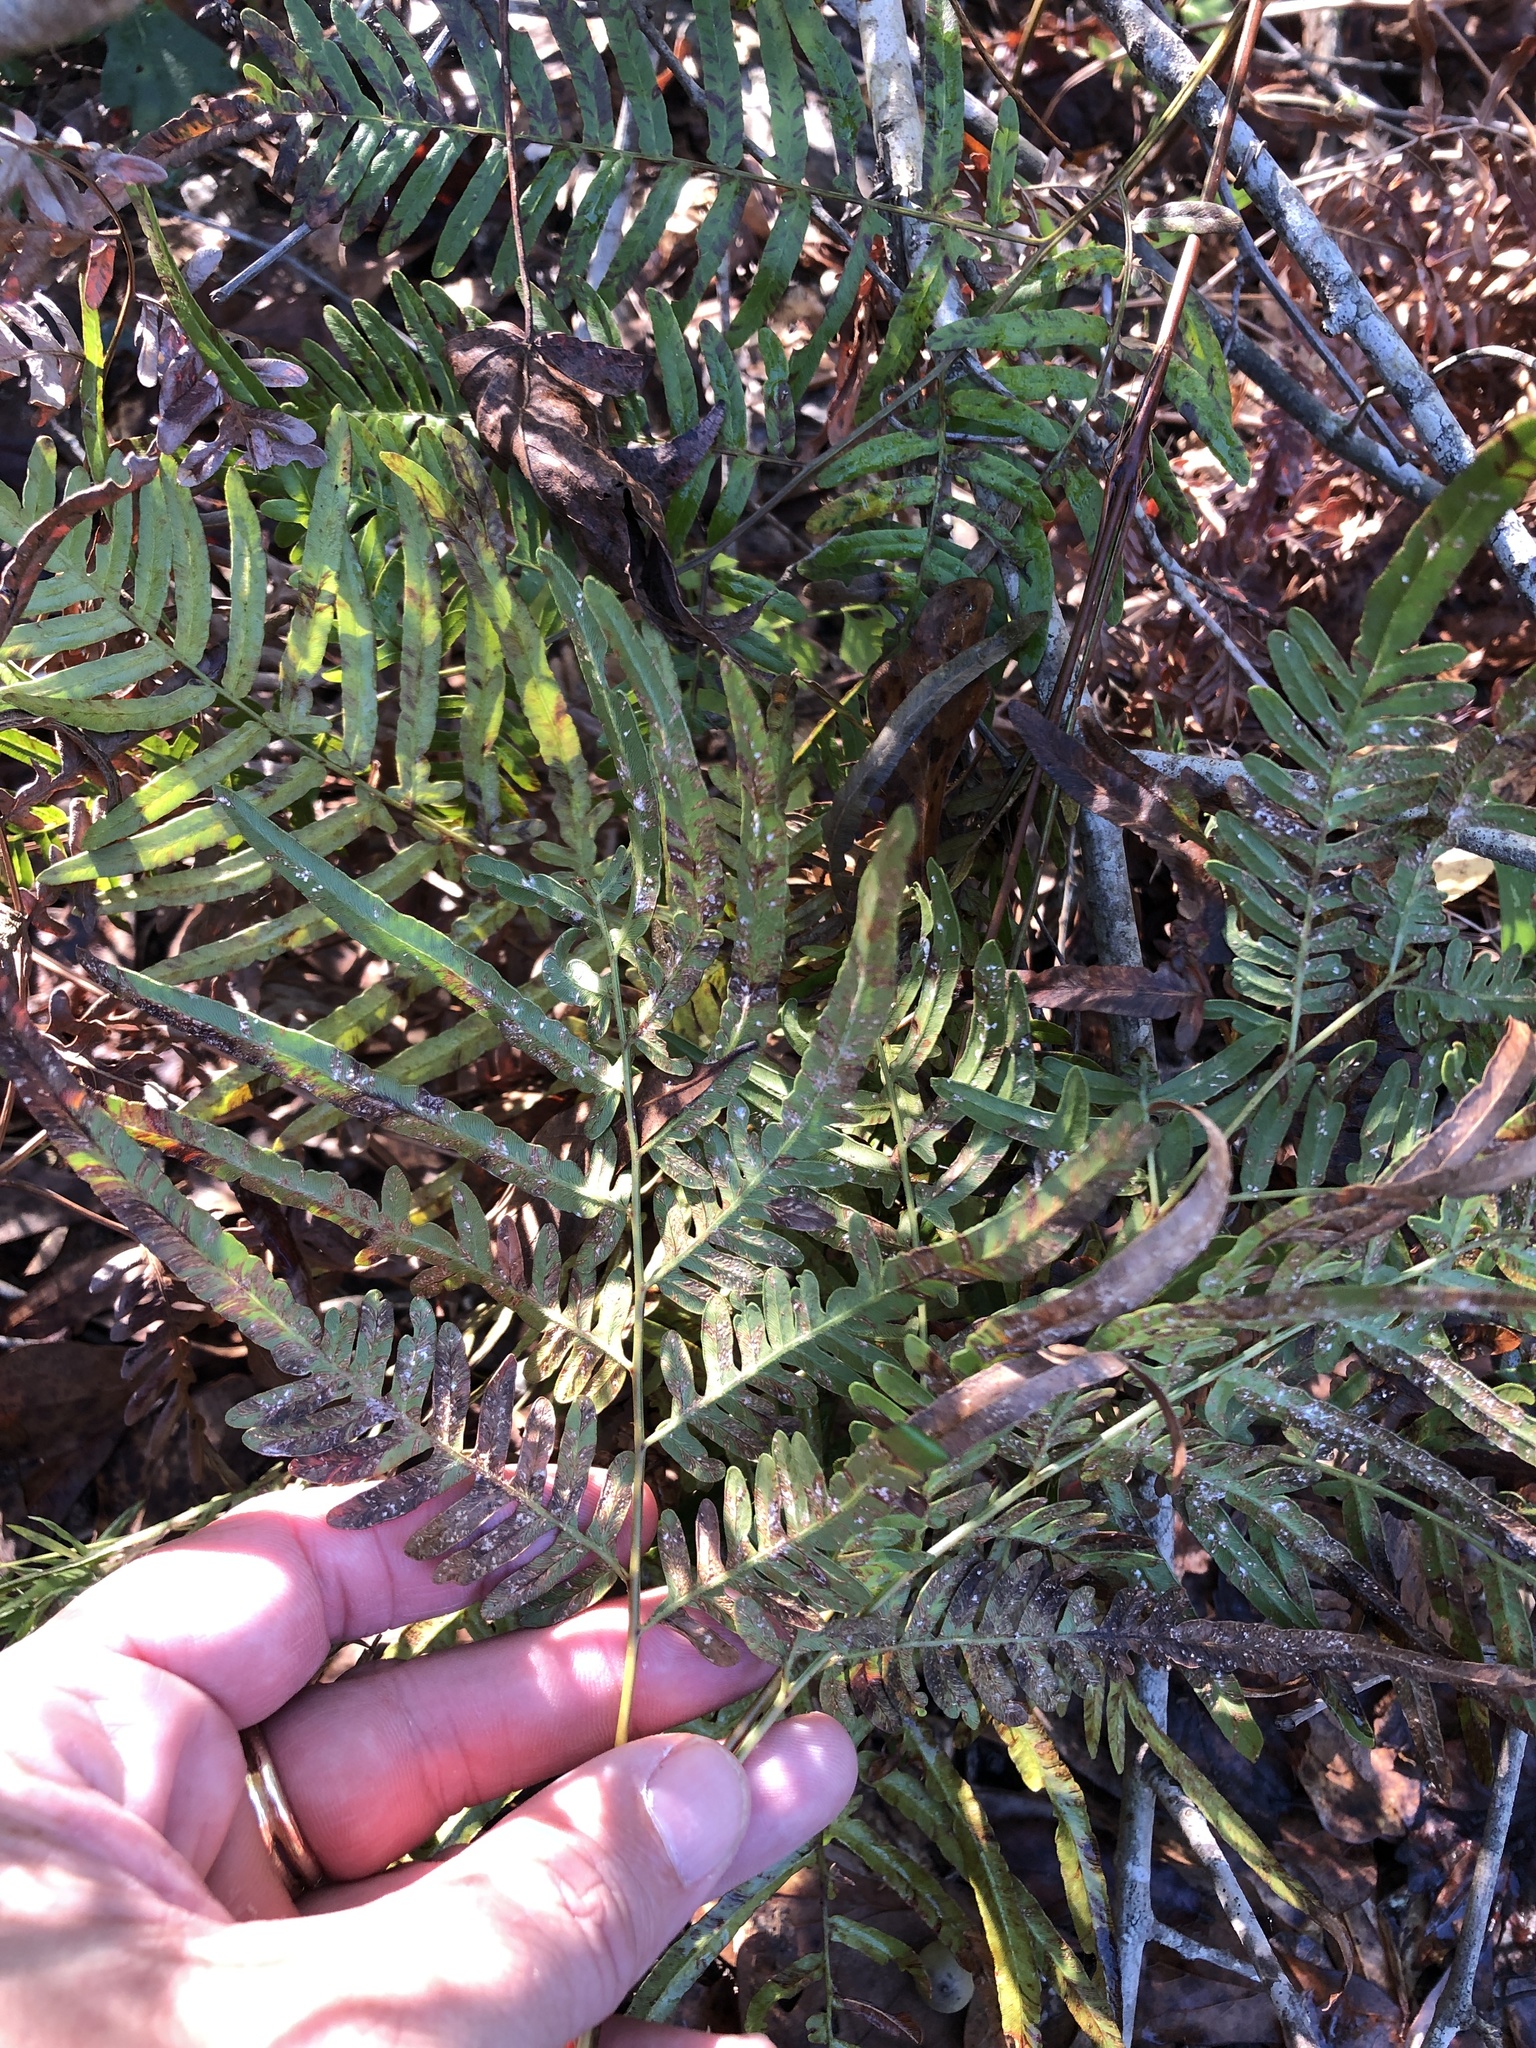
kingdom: Plantae
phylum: Tracheophyta
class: Polypodiopsida
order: Polypodiales
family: Dennstaedtiaceae
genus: Pteridium
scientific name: Pteridium
